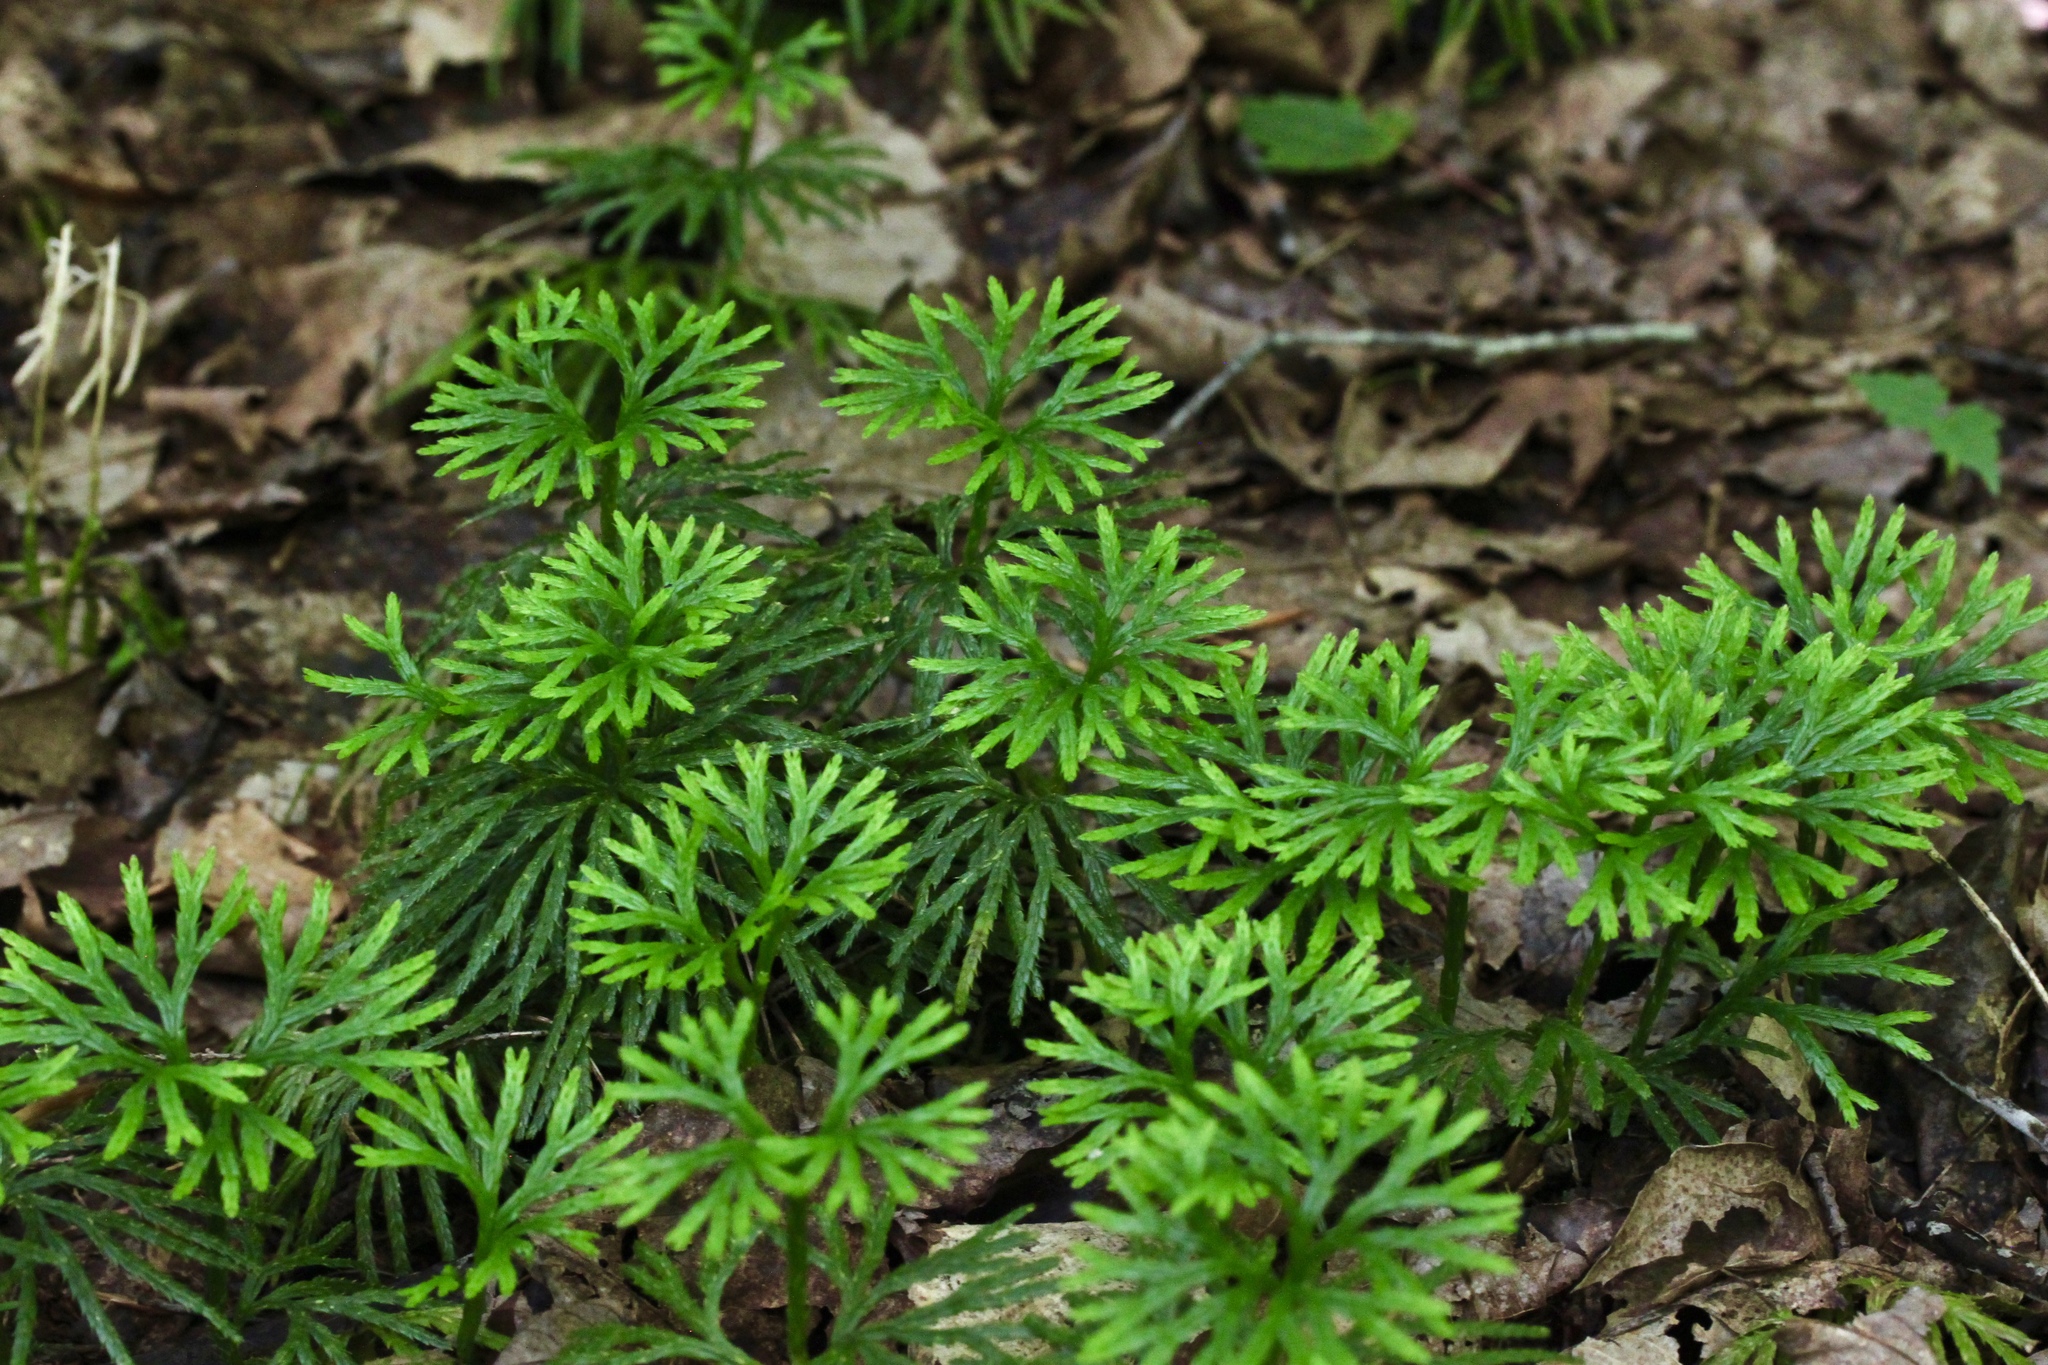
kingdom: Plantae
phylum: Tracheophyta
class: Lycopodiopsida
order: Lycopodiales
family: Lycopodiaceae
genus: Diphasiastrum
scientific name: Diphasiastrum digitatum
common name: Southern running-pine
